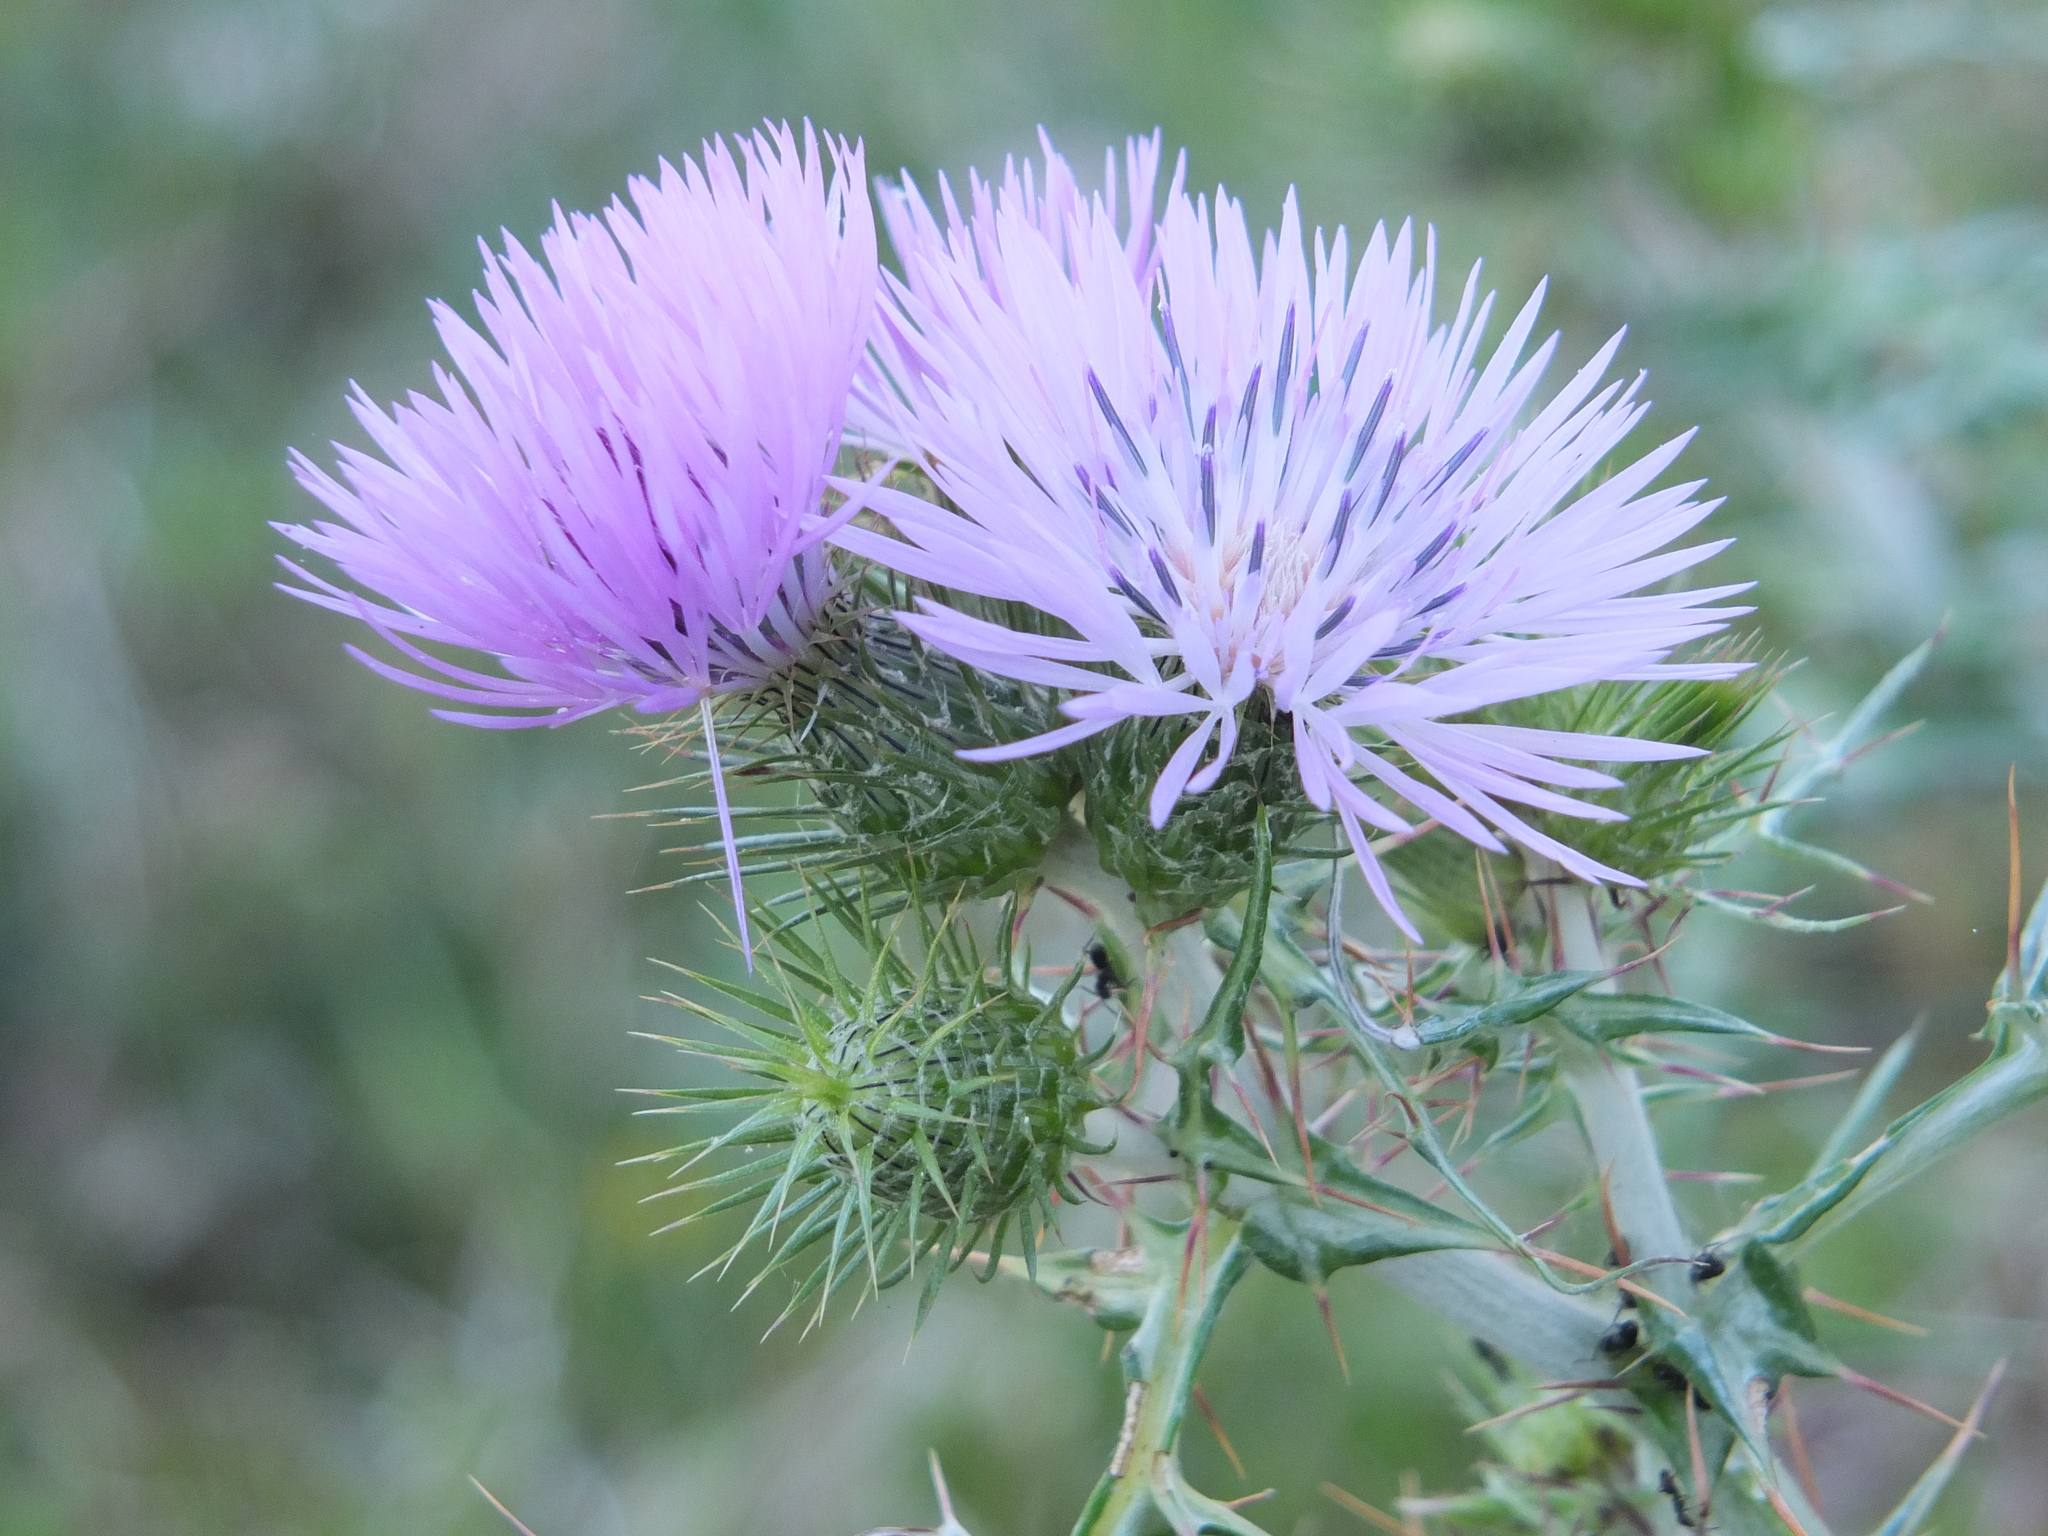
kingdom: Plantae
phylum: Tracheophyta
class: Magnoliopsida
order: Asterales
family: Asteraceae
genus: Galactites
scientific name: Galactites tomentosa
